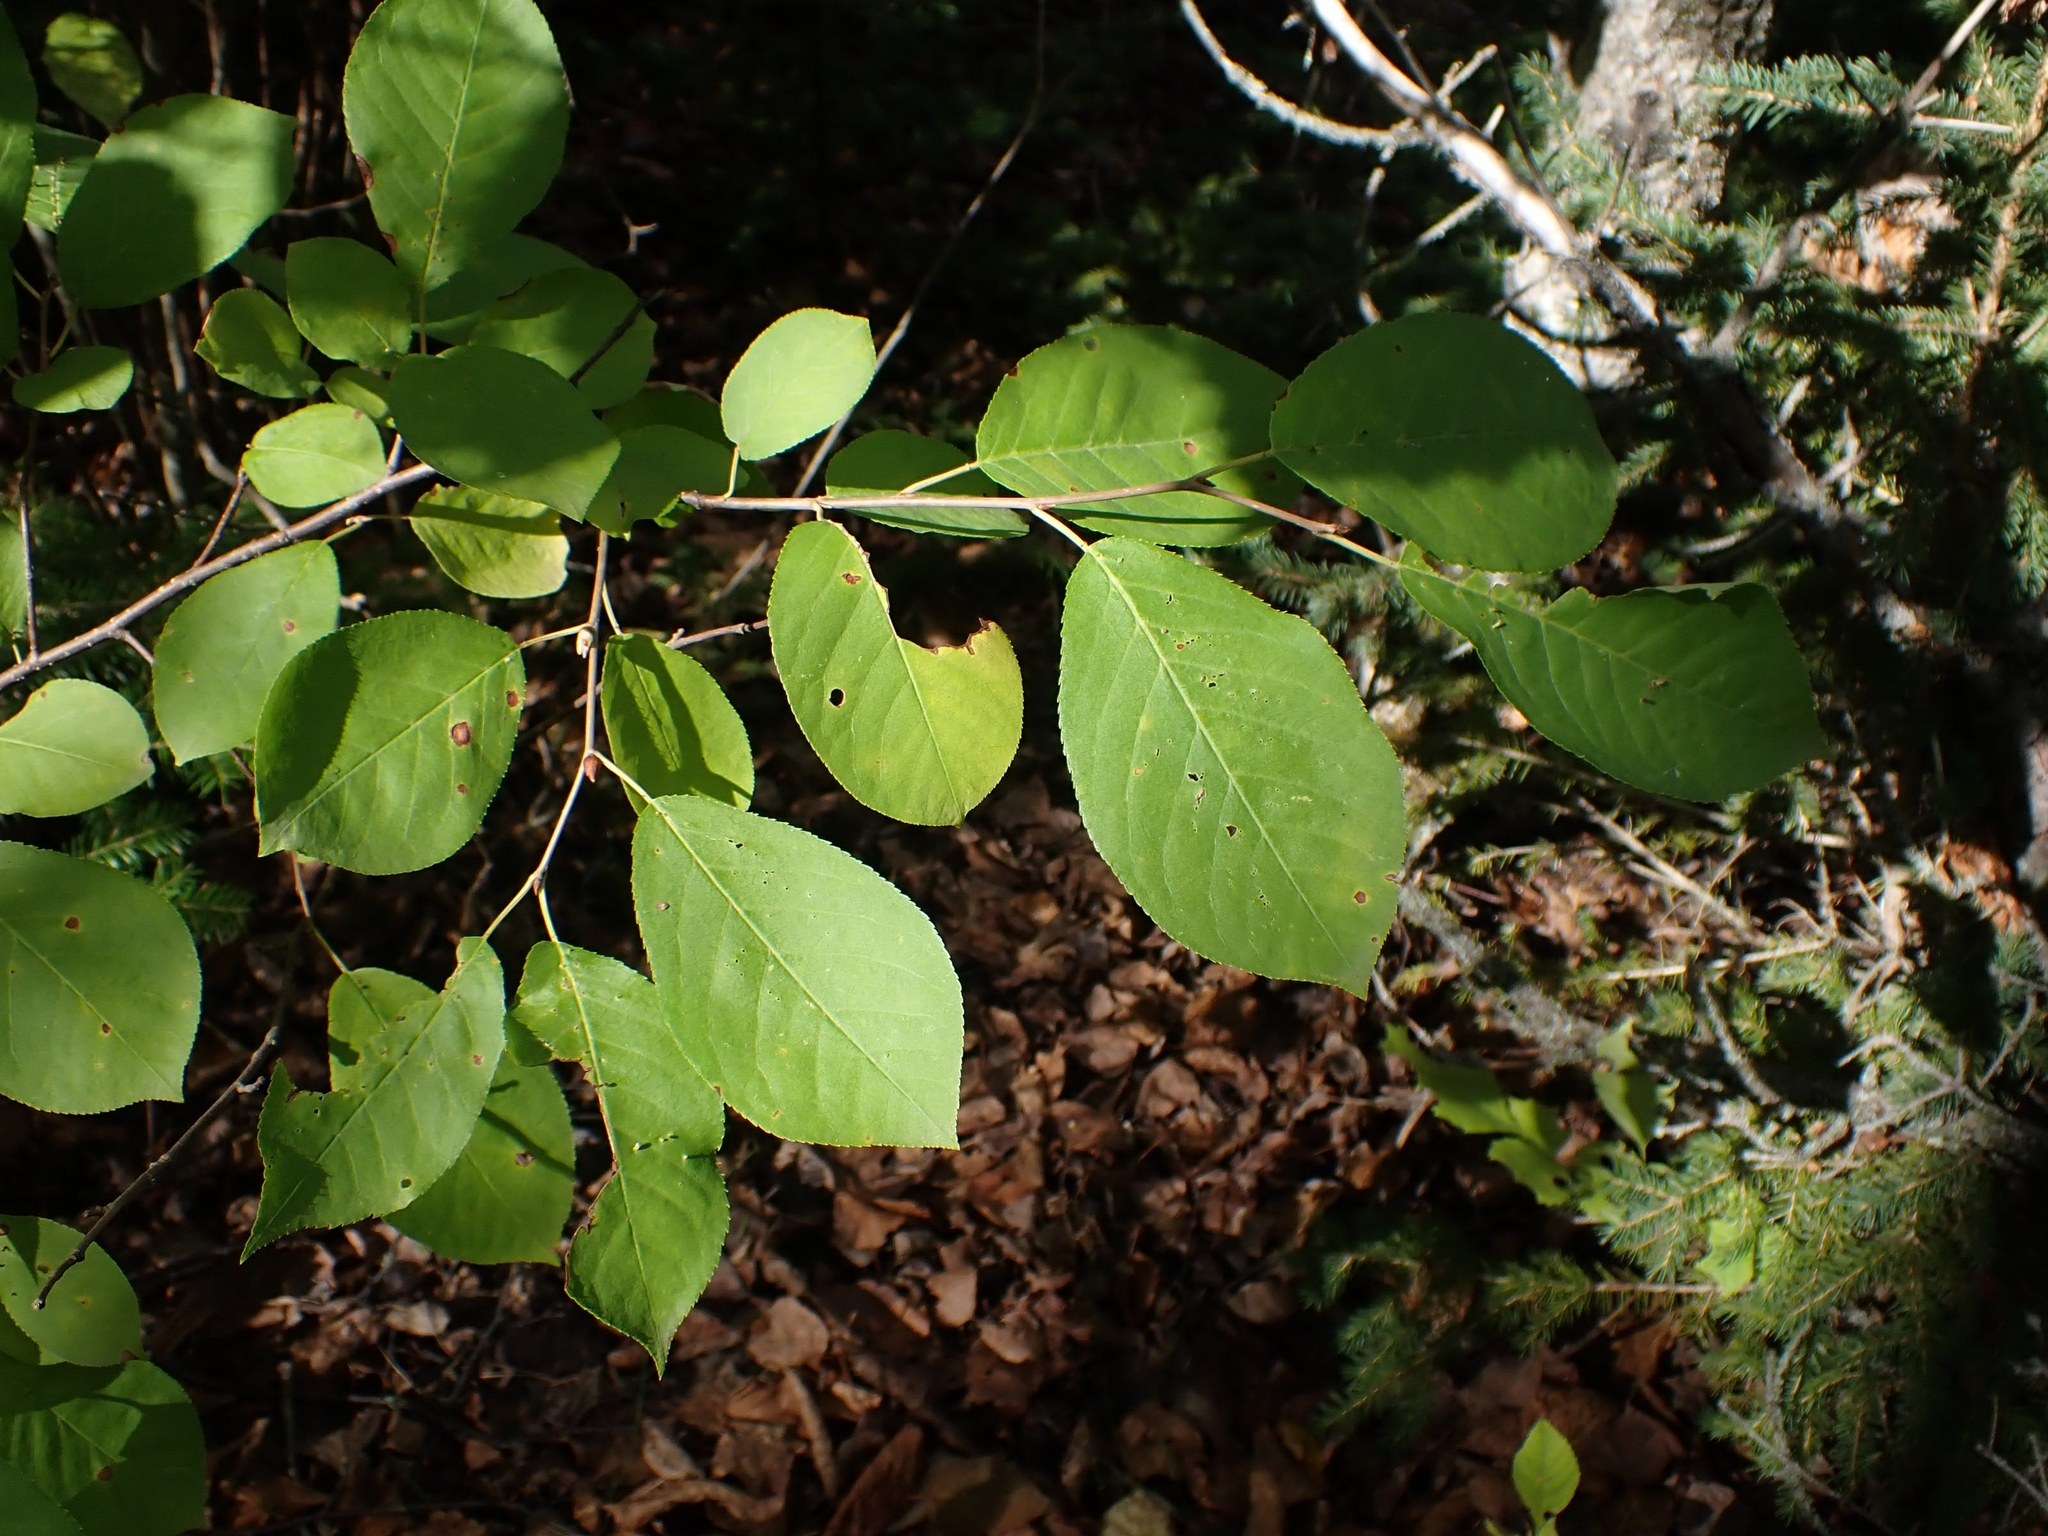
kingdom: Plantae
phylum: Tracheophyta
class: Magnoliopsida
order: Rosales
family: Rosaceae
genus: Prunus
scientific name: Prunus virginiana
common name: Chokecherry
